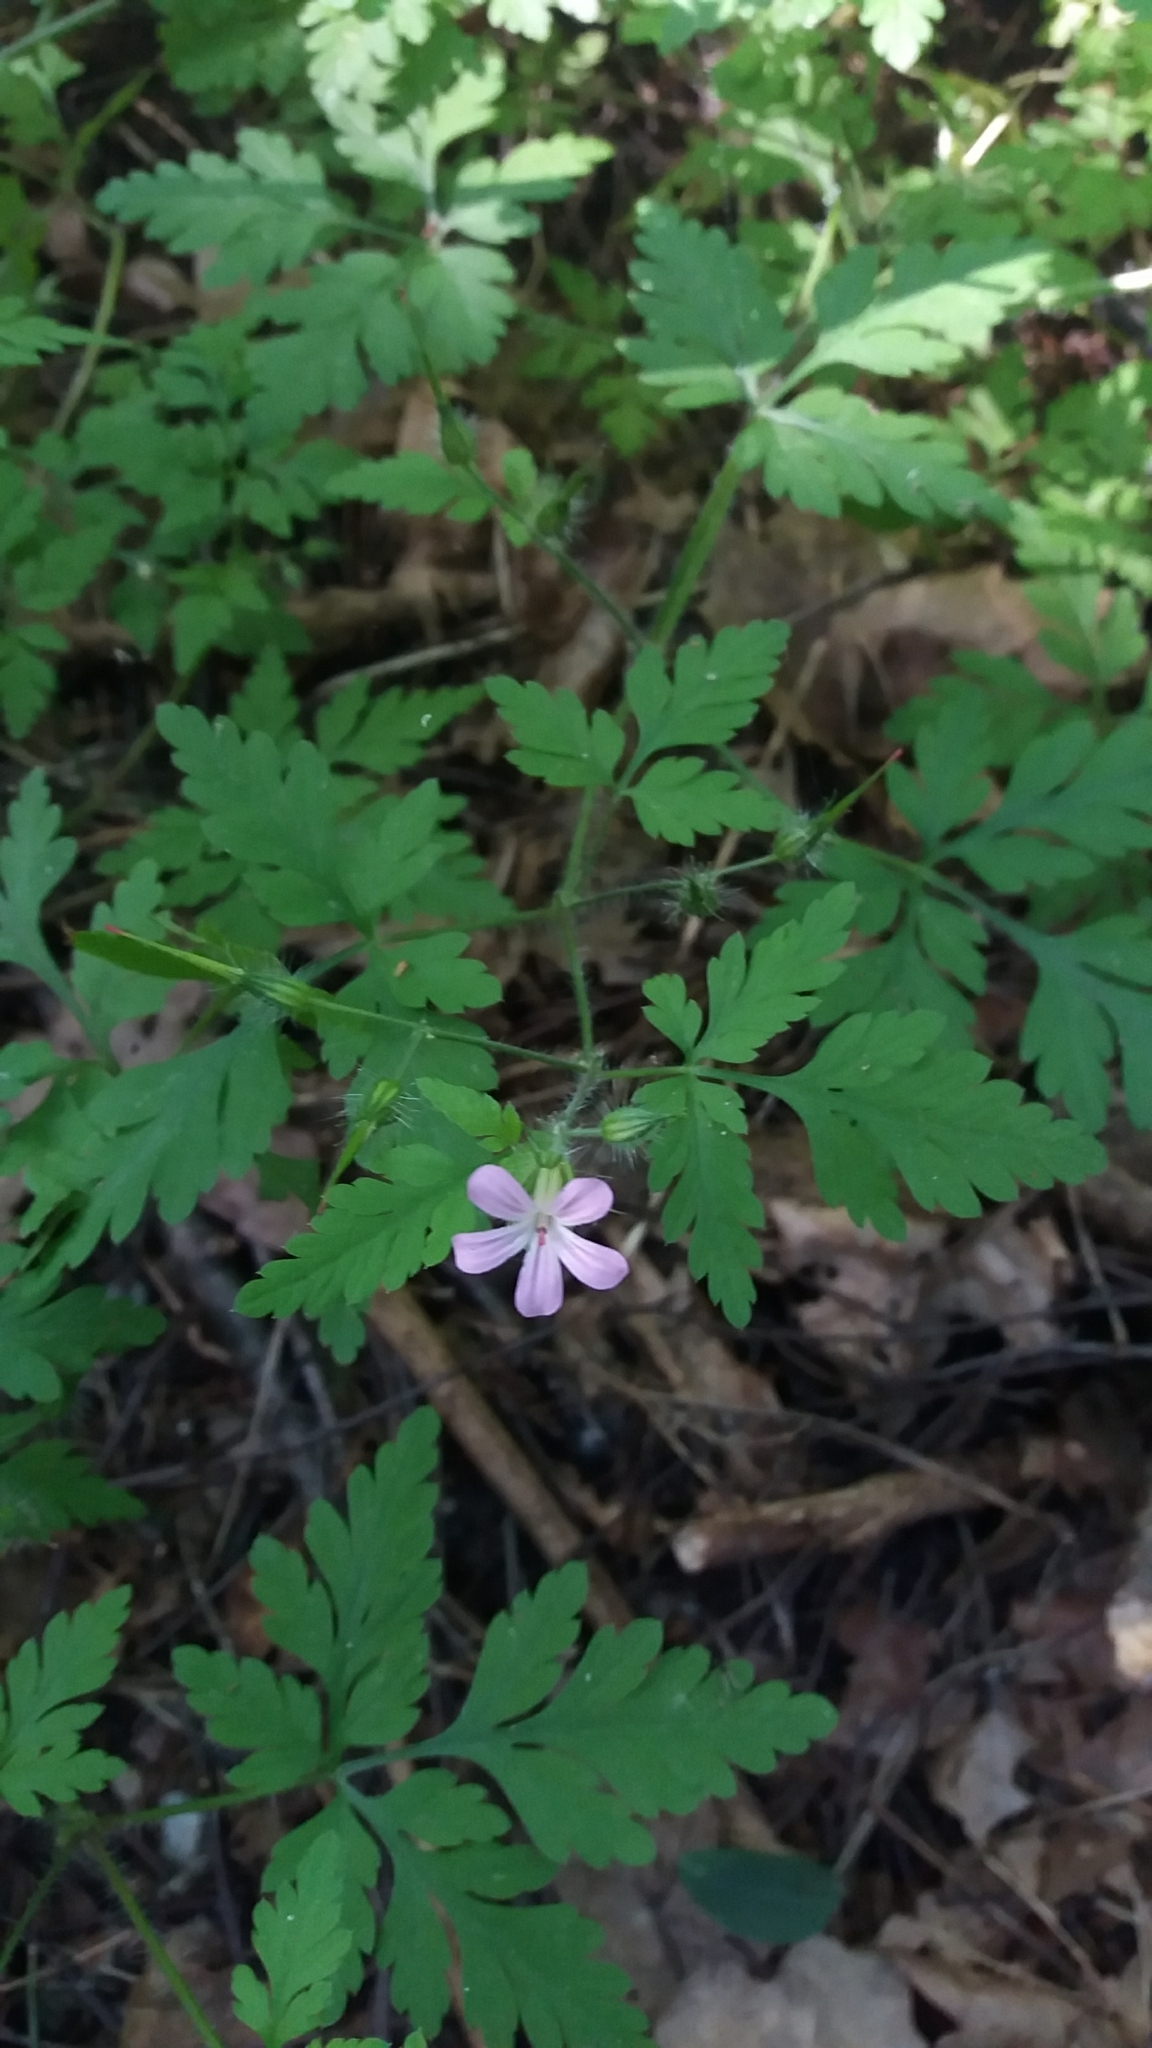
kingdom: Plantae
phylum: Tracheophyta
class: Magnoliopsida
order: Geraniales
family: Geraniaceae
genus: Geranium
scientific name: Geranium robertianum
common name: Herb-robert
